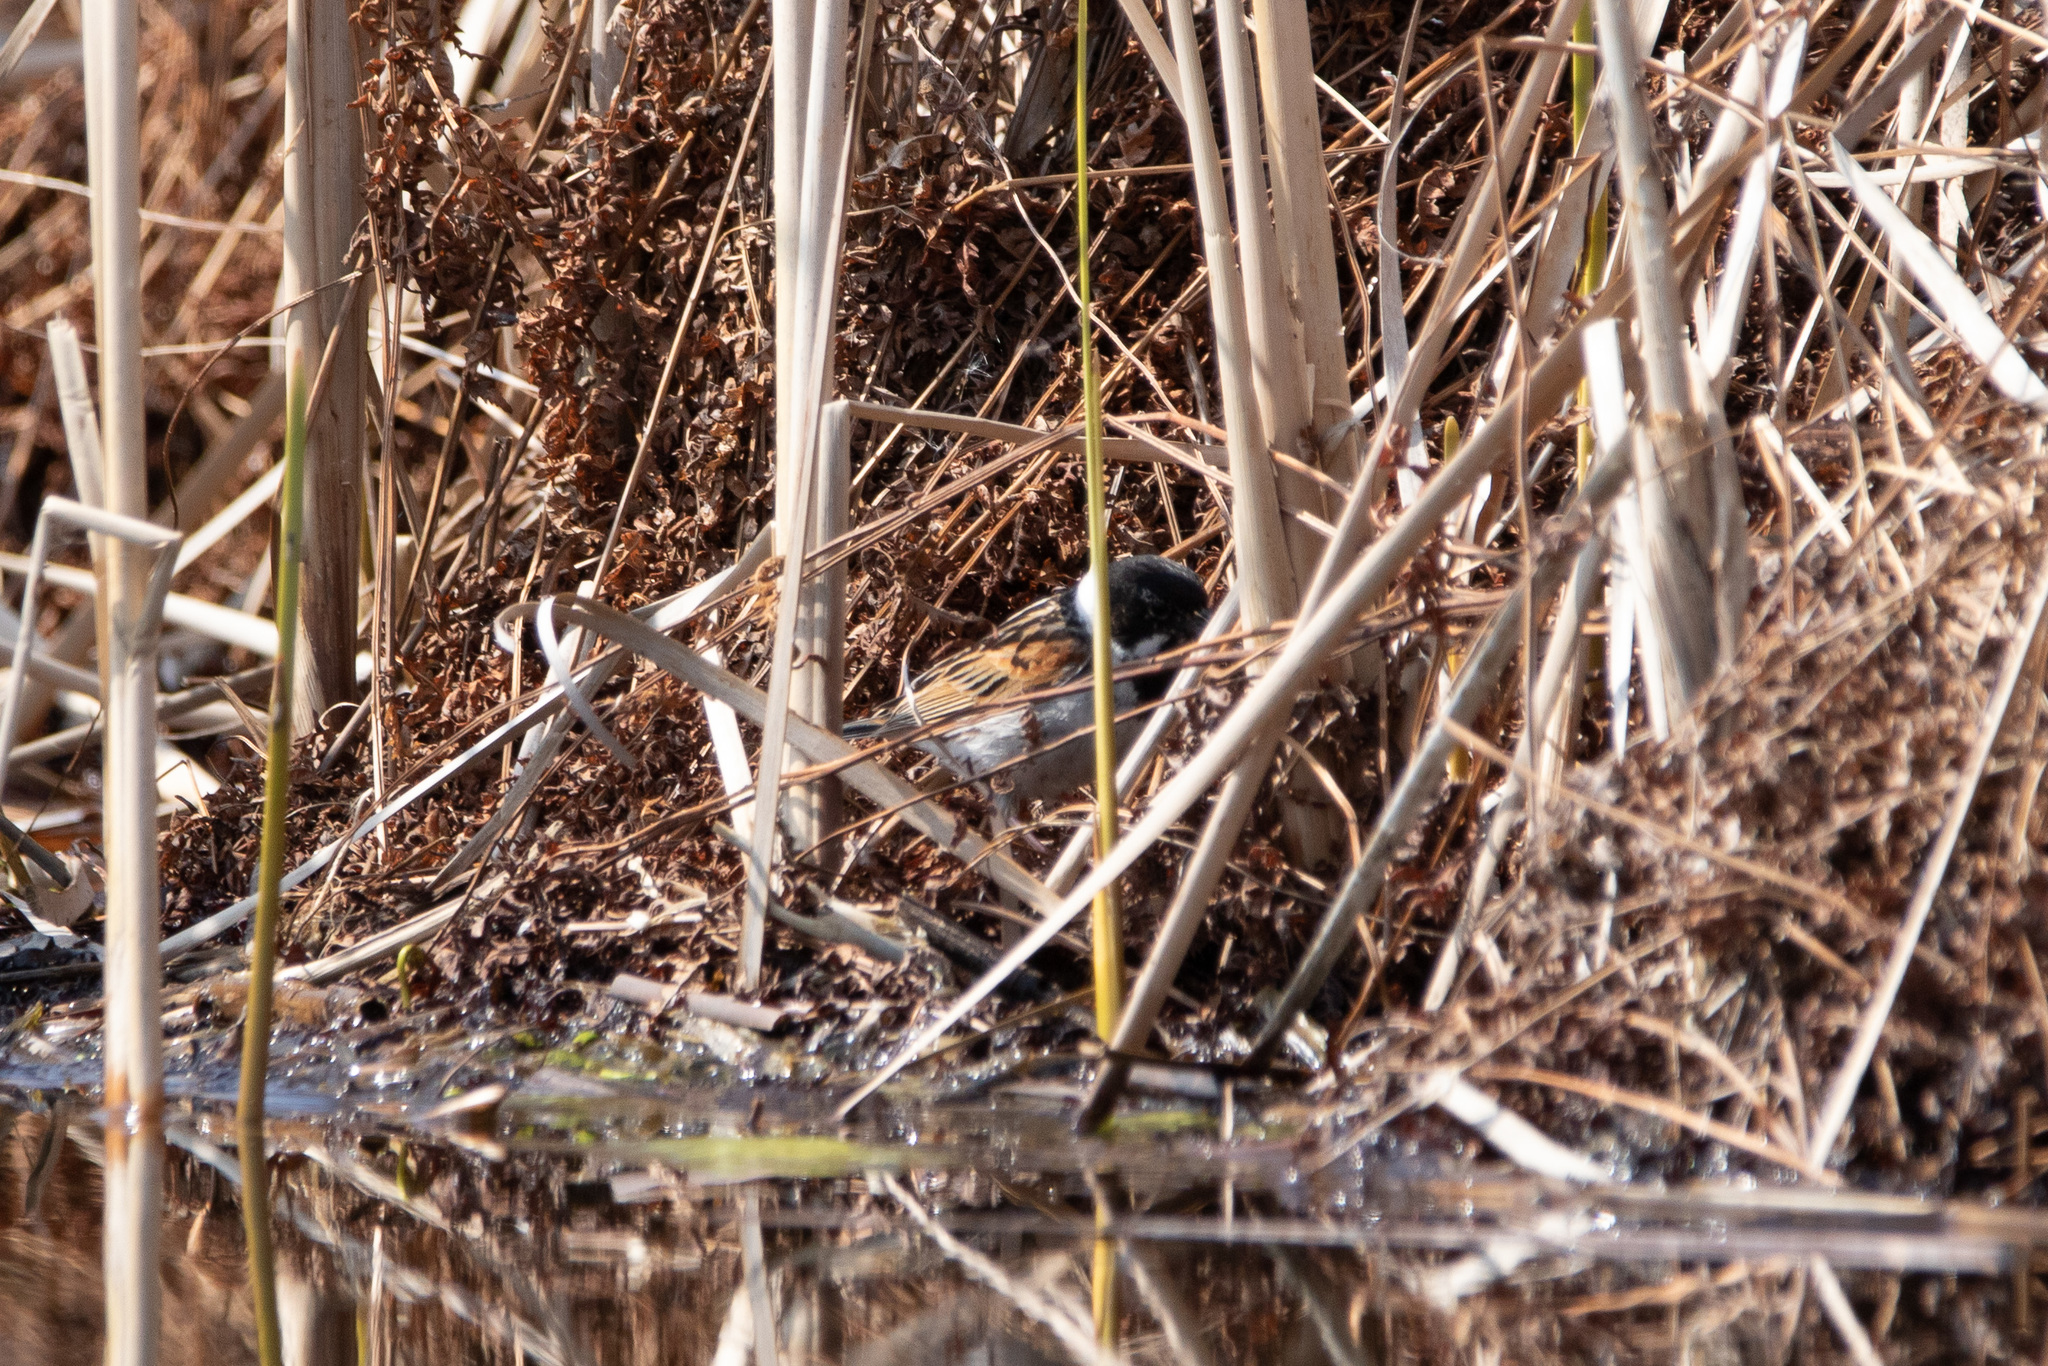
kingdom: Animalia
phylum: Chordata
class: Aves
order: Passeriformes
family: Emberizidae
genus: Emberiza
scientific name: Emberiza schoeniclus
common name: Reed bunting
